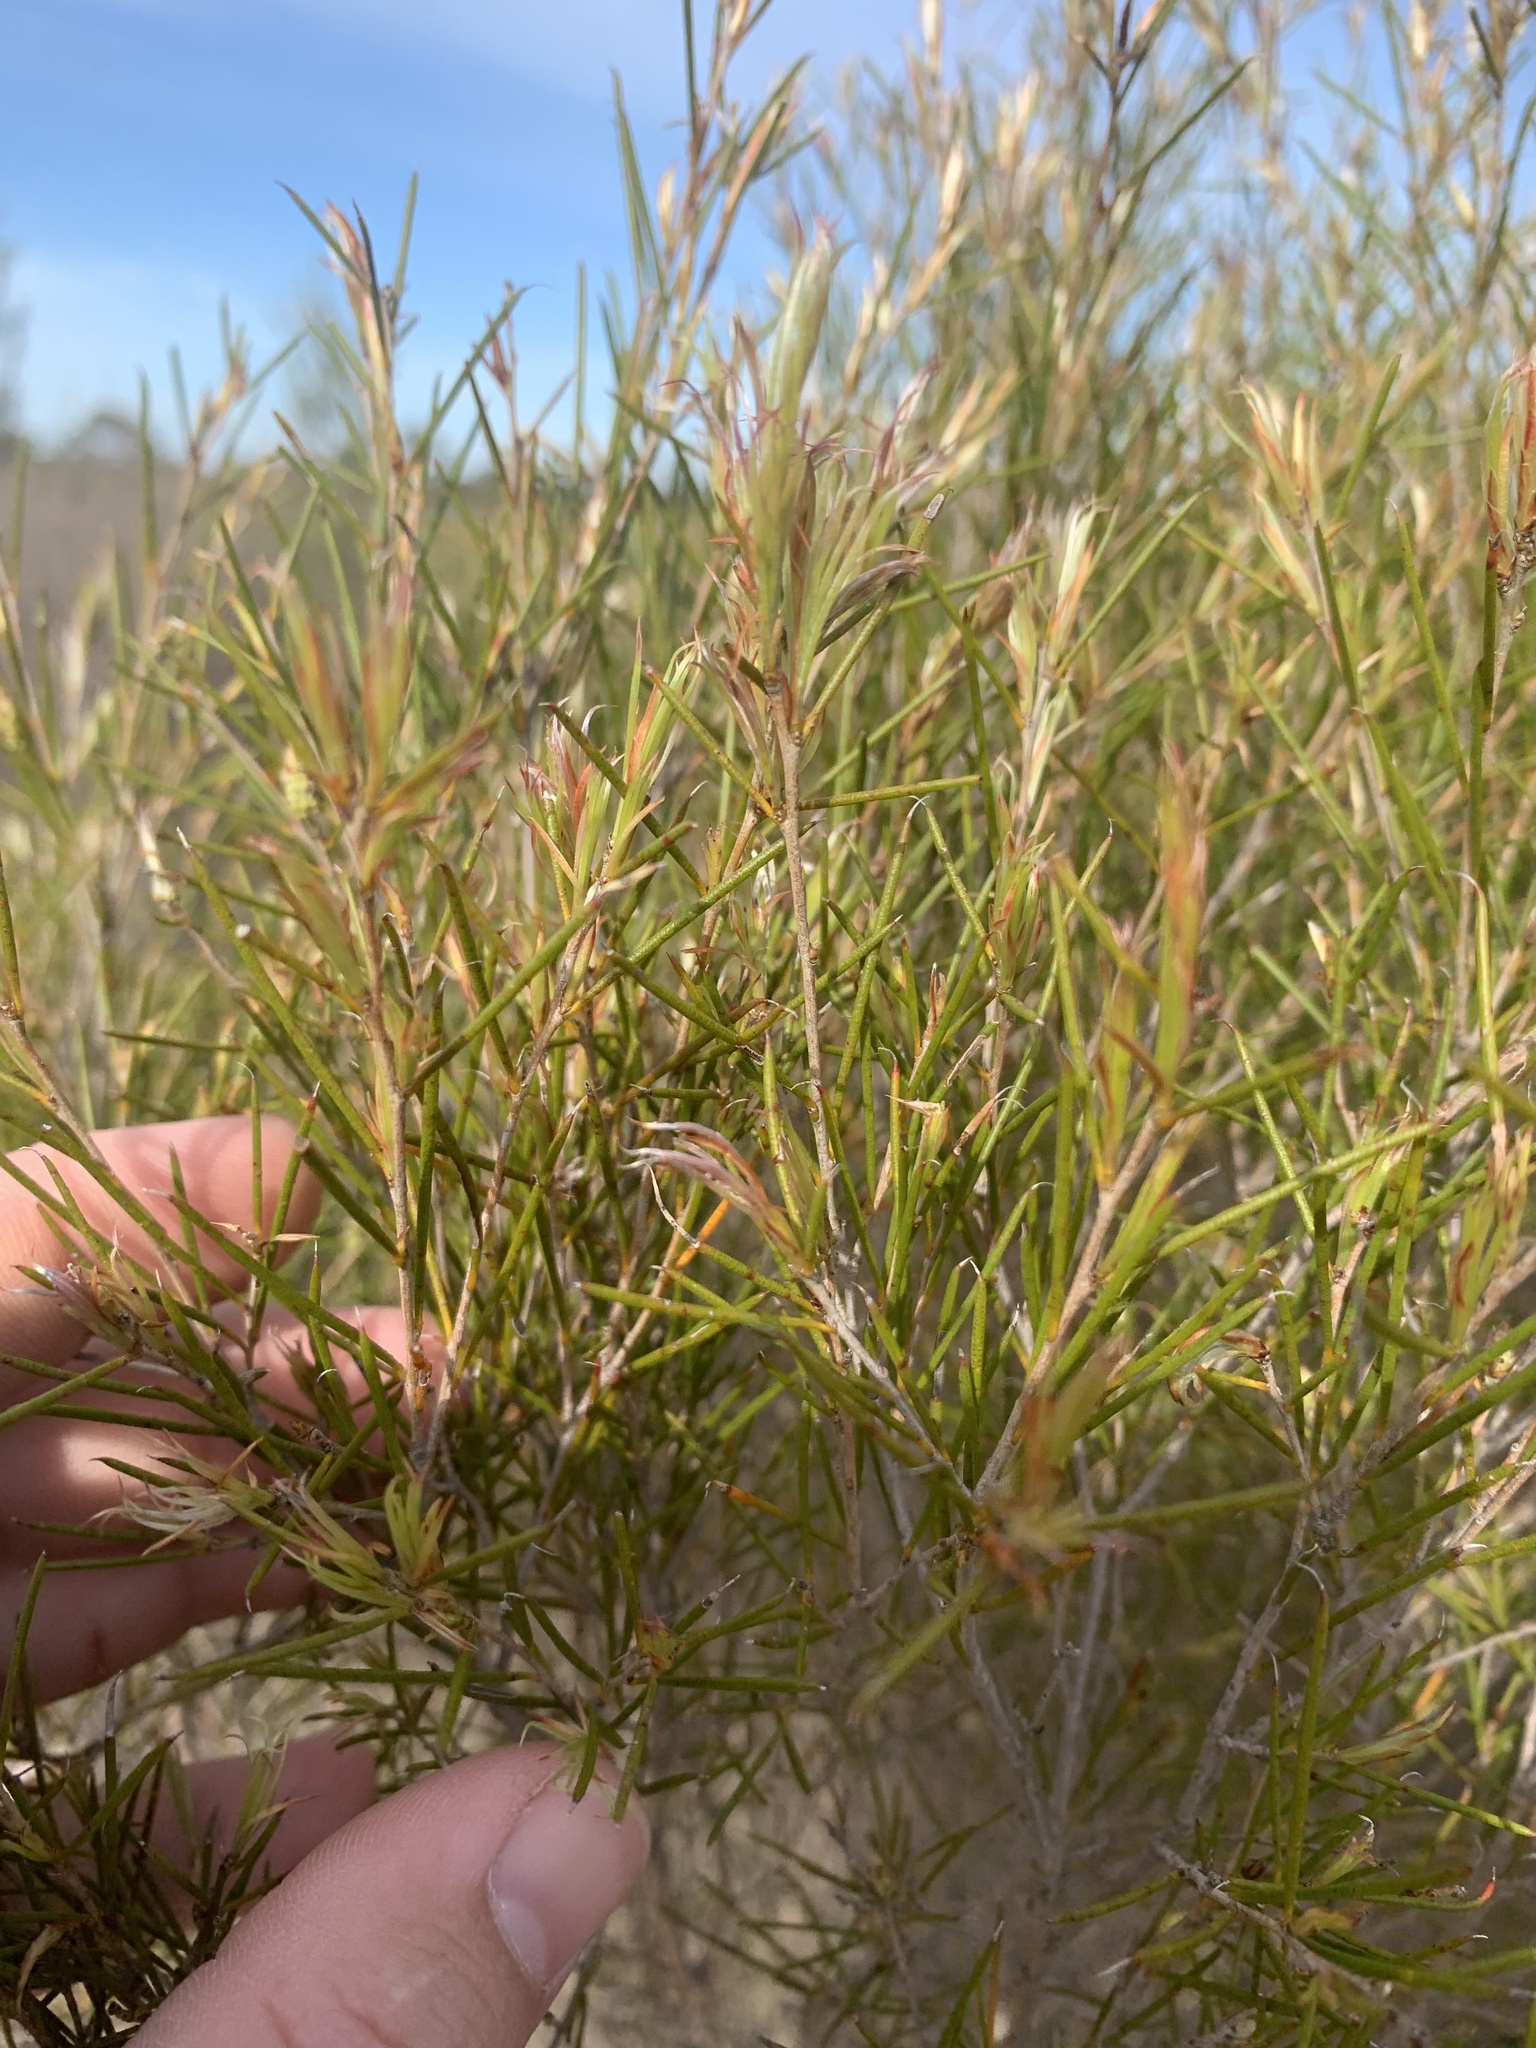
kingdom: Plantae
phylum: Tracheophyta
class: Magnoliopsida
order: Myrtales
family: Myrtaceae
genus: Melaleuca
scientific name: Melaleuca uncinata
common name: Broom honey myrtle
